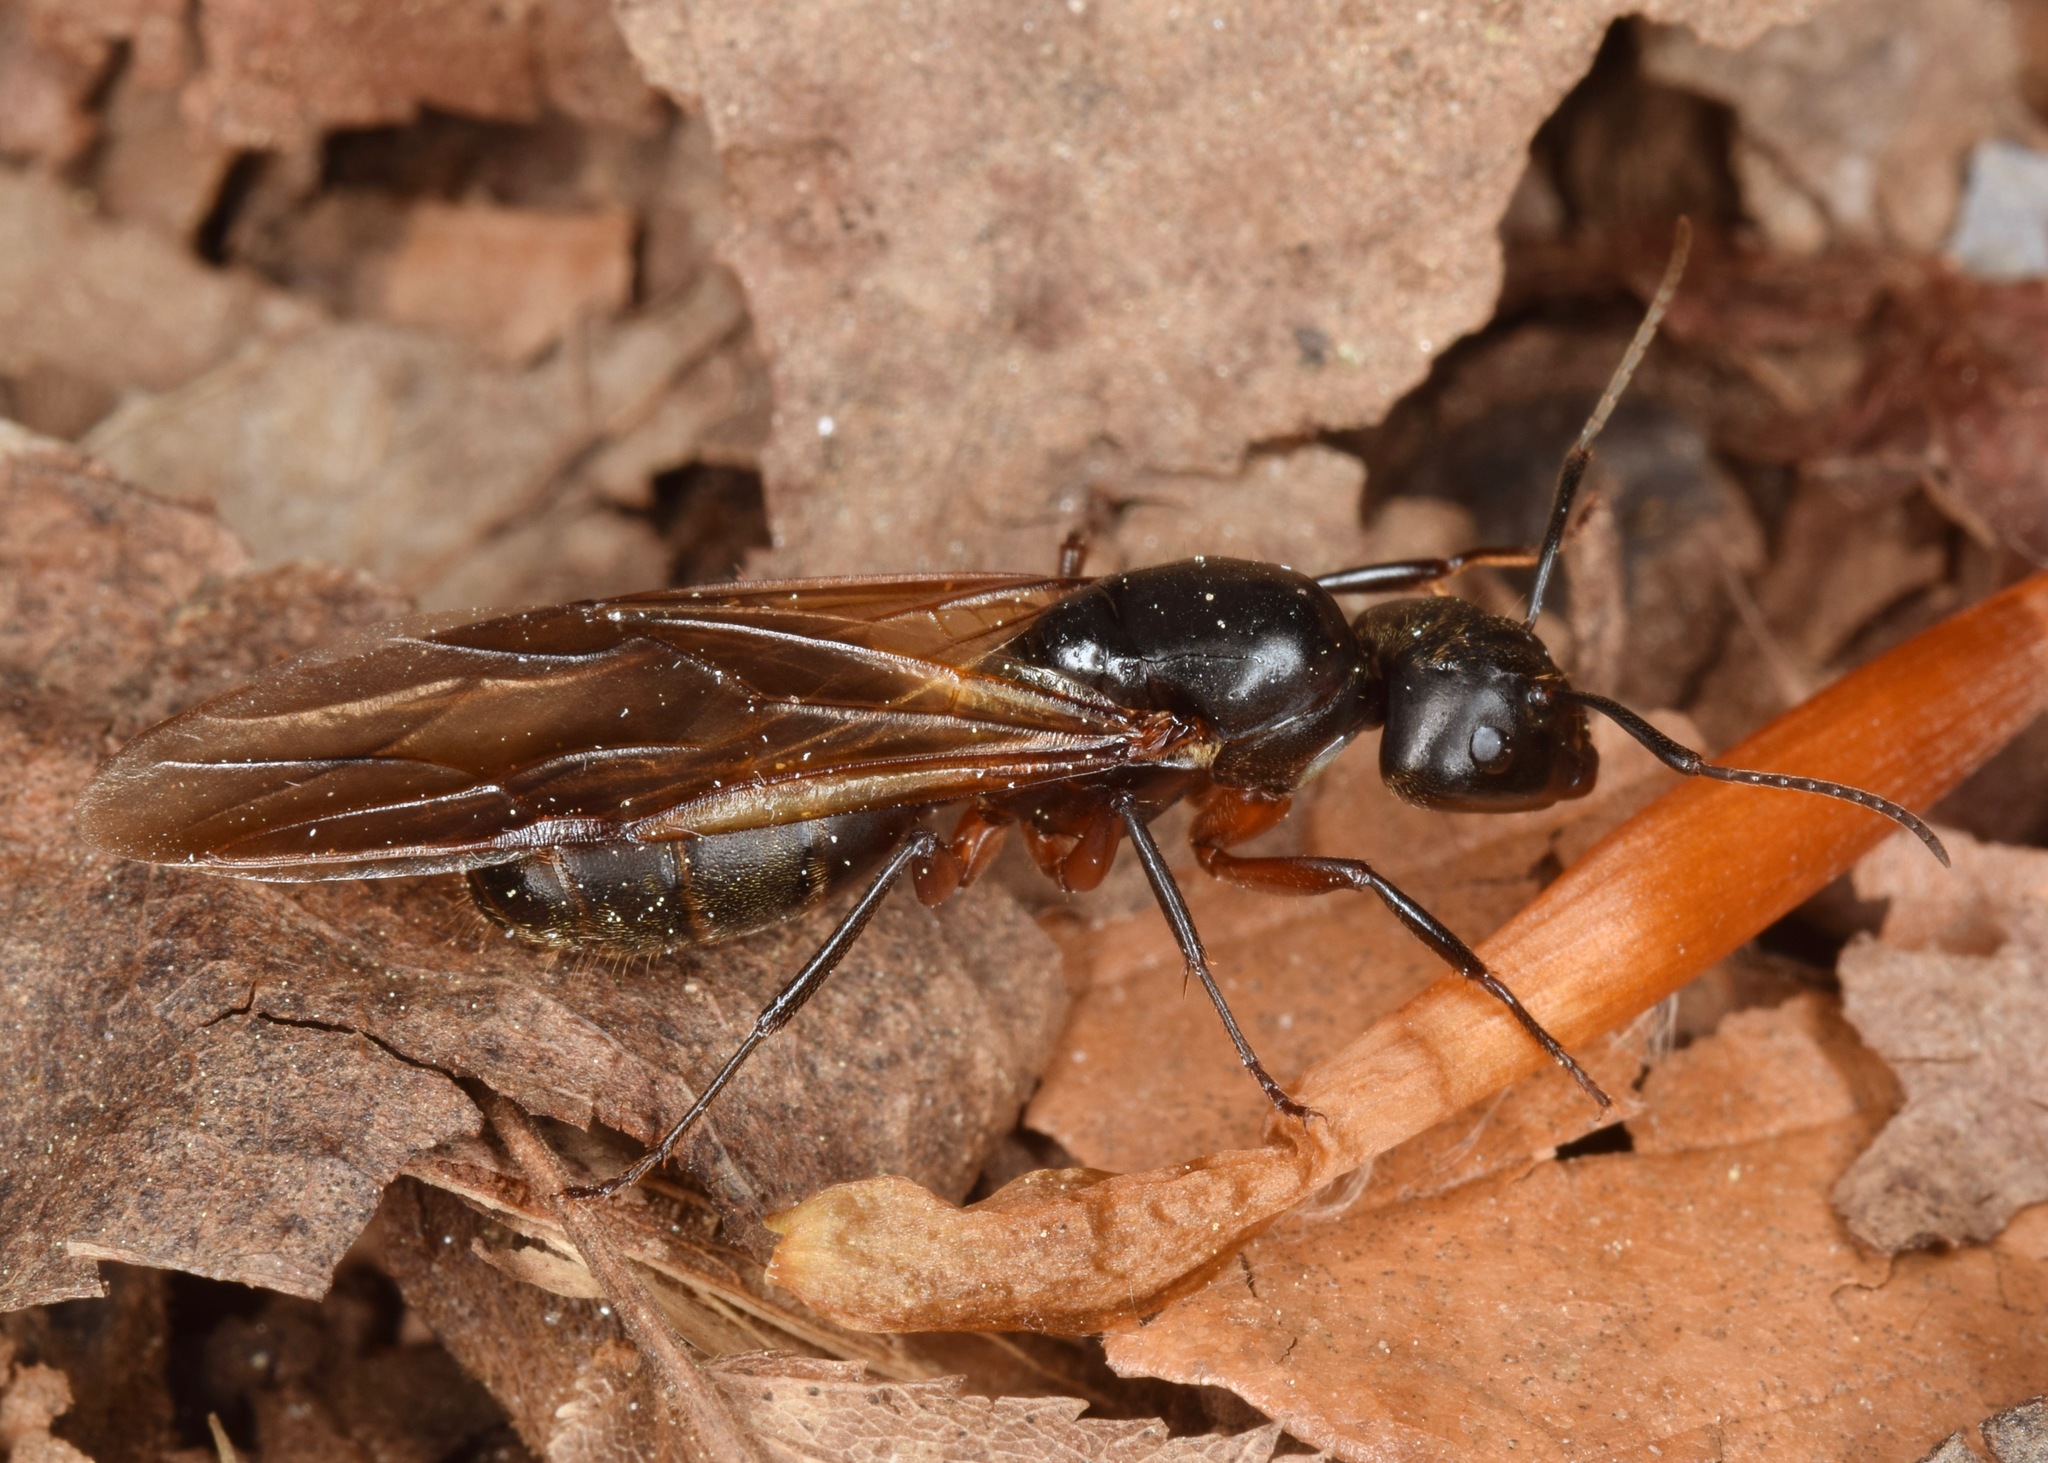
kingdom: Animalia
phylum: Arthropoda
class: Insecta
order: Hymenoptera
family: Formicidae
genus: Camponotus
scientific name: Camponotus chromaiodes
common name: Red carpenter ant
